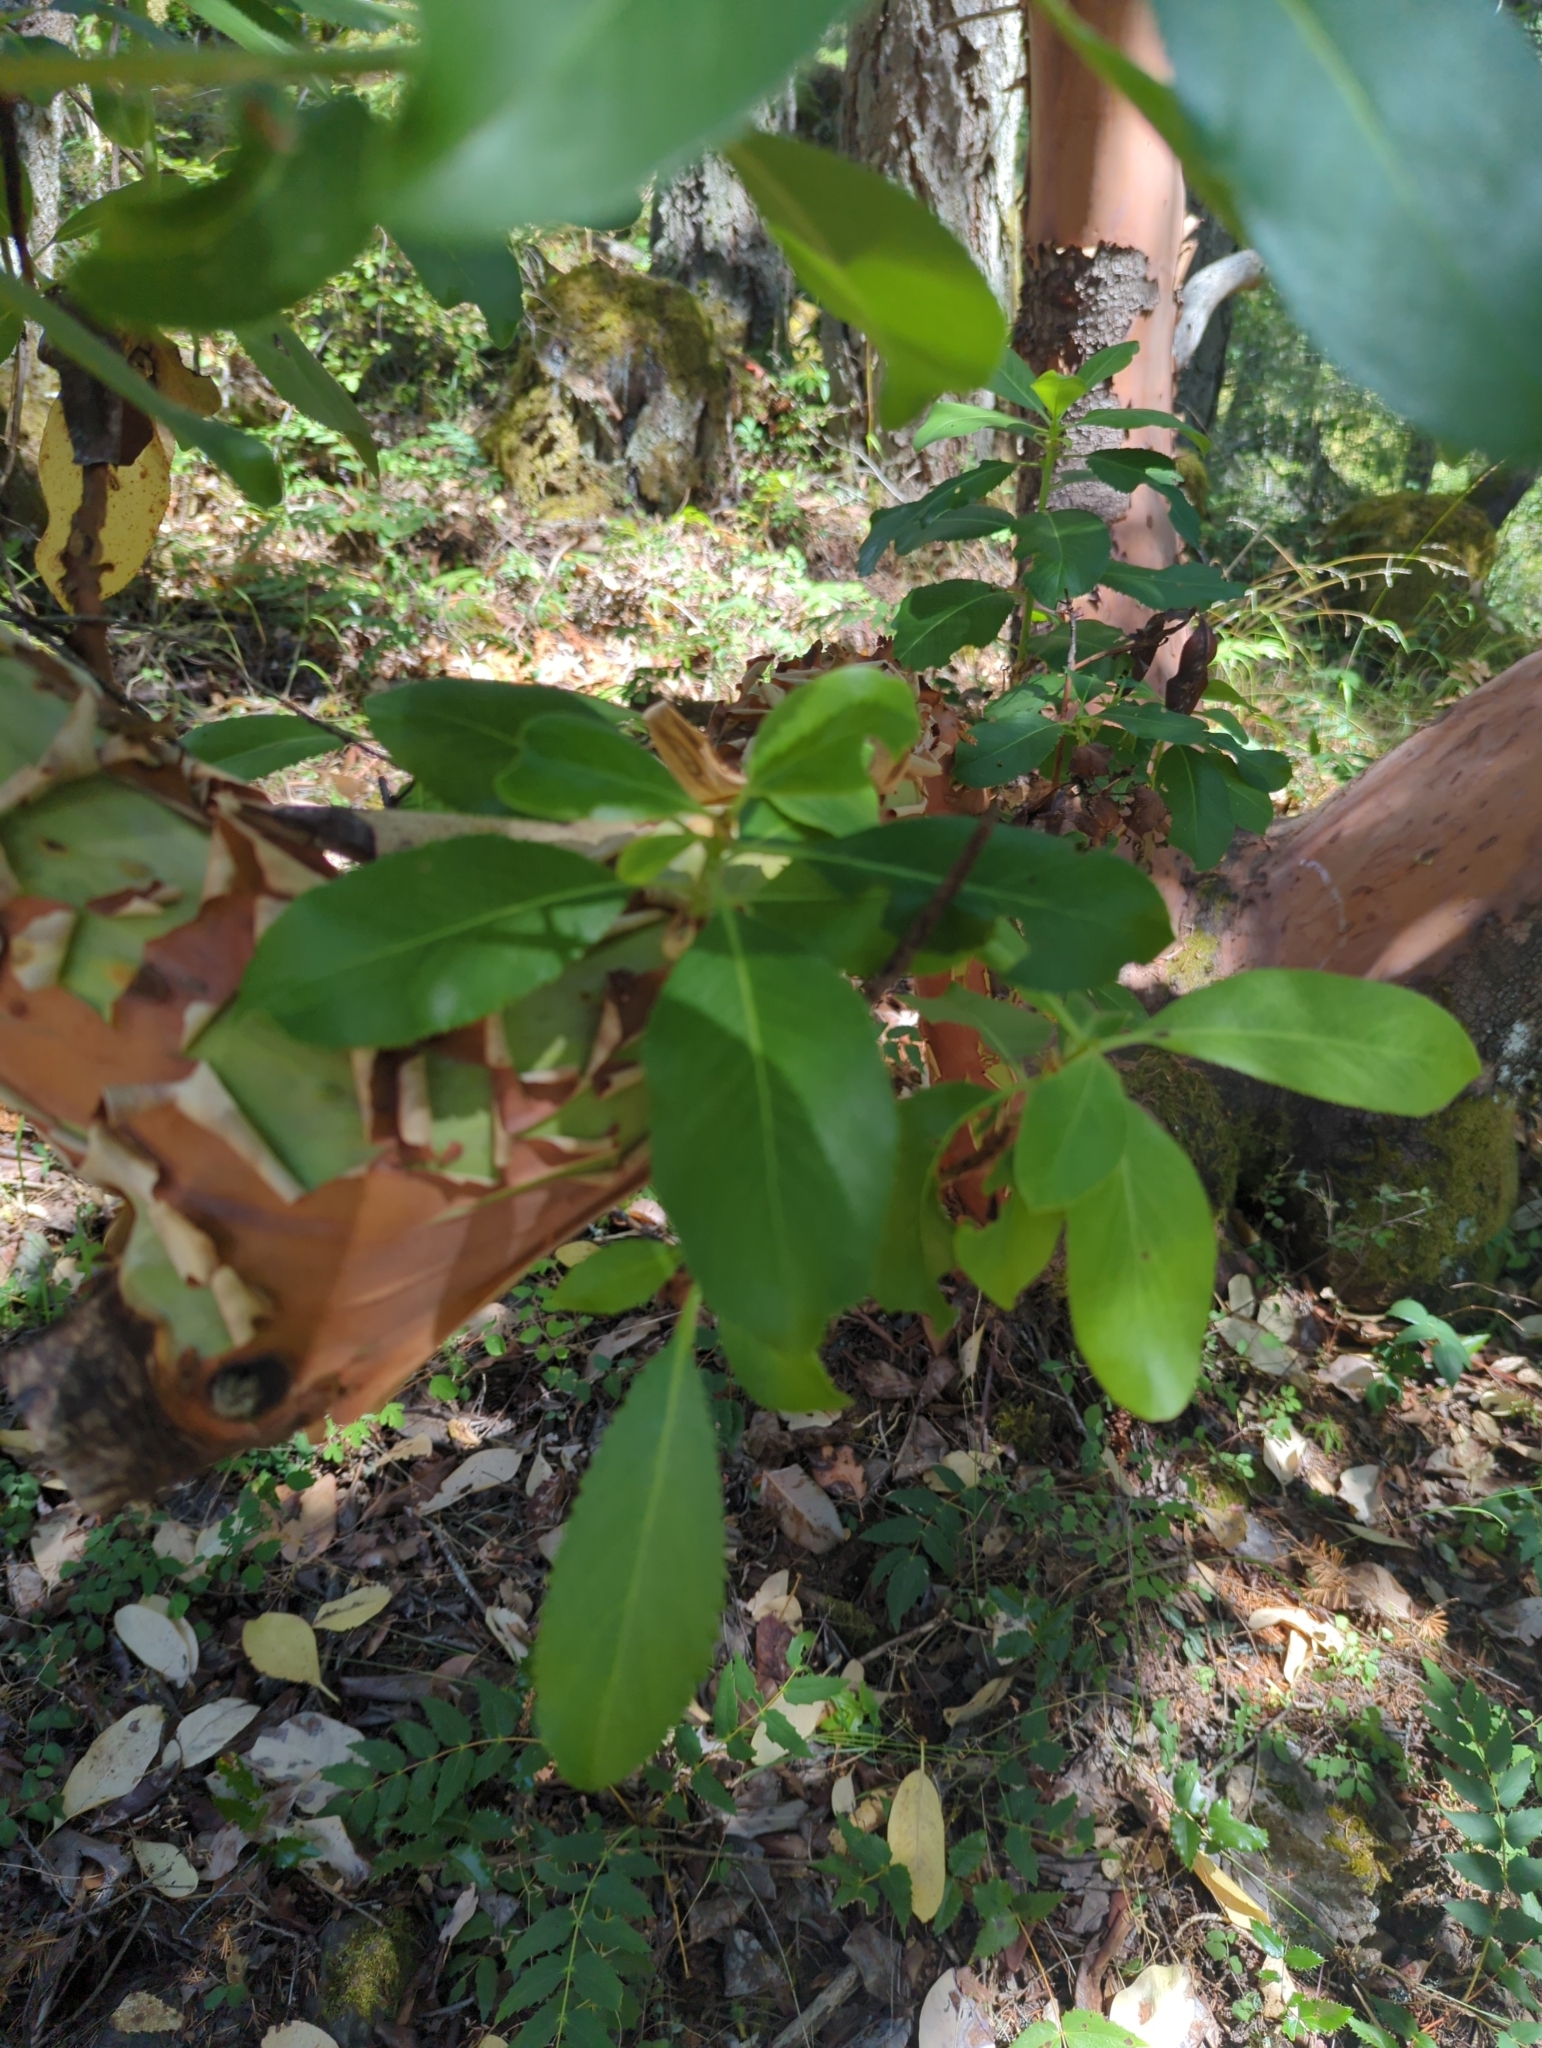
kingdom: Plantae
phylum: Tracheophyta
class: Magnoliopsida
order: Ericales
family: Ericaceae
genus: Arbutus
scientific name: Arbutus menziesii
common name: Pacific madrone
